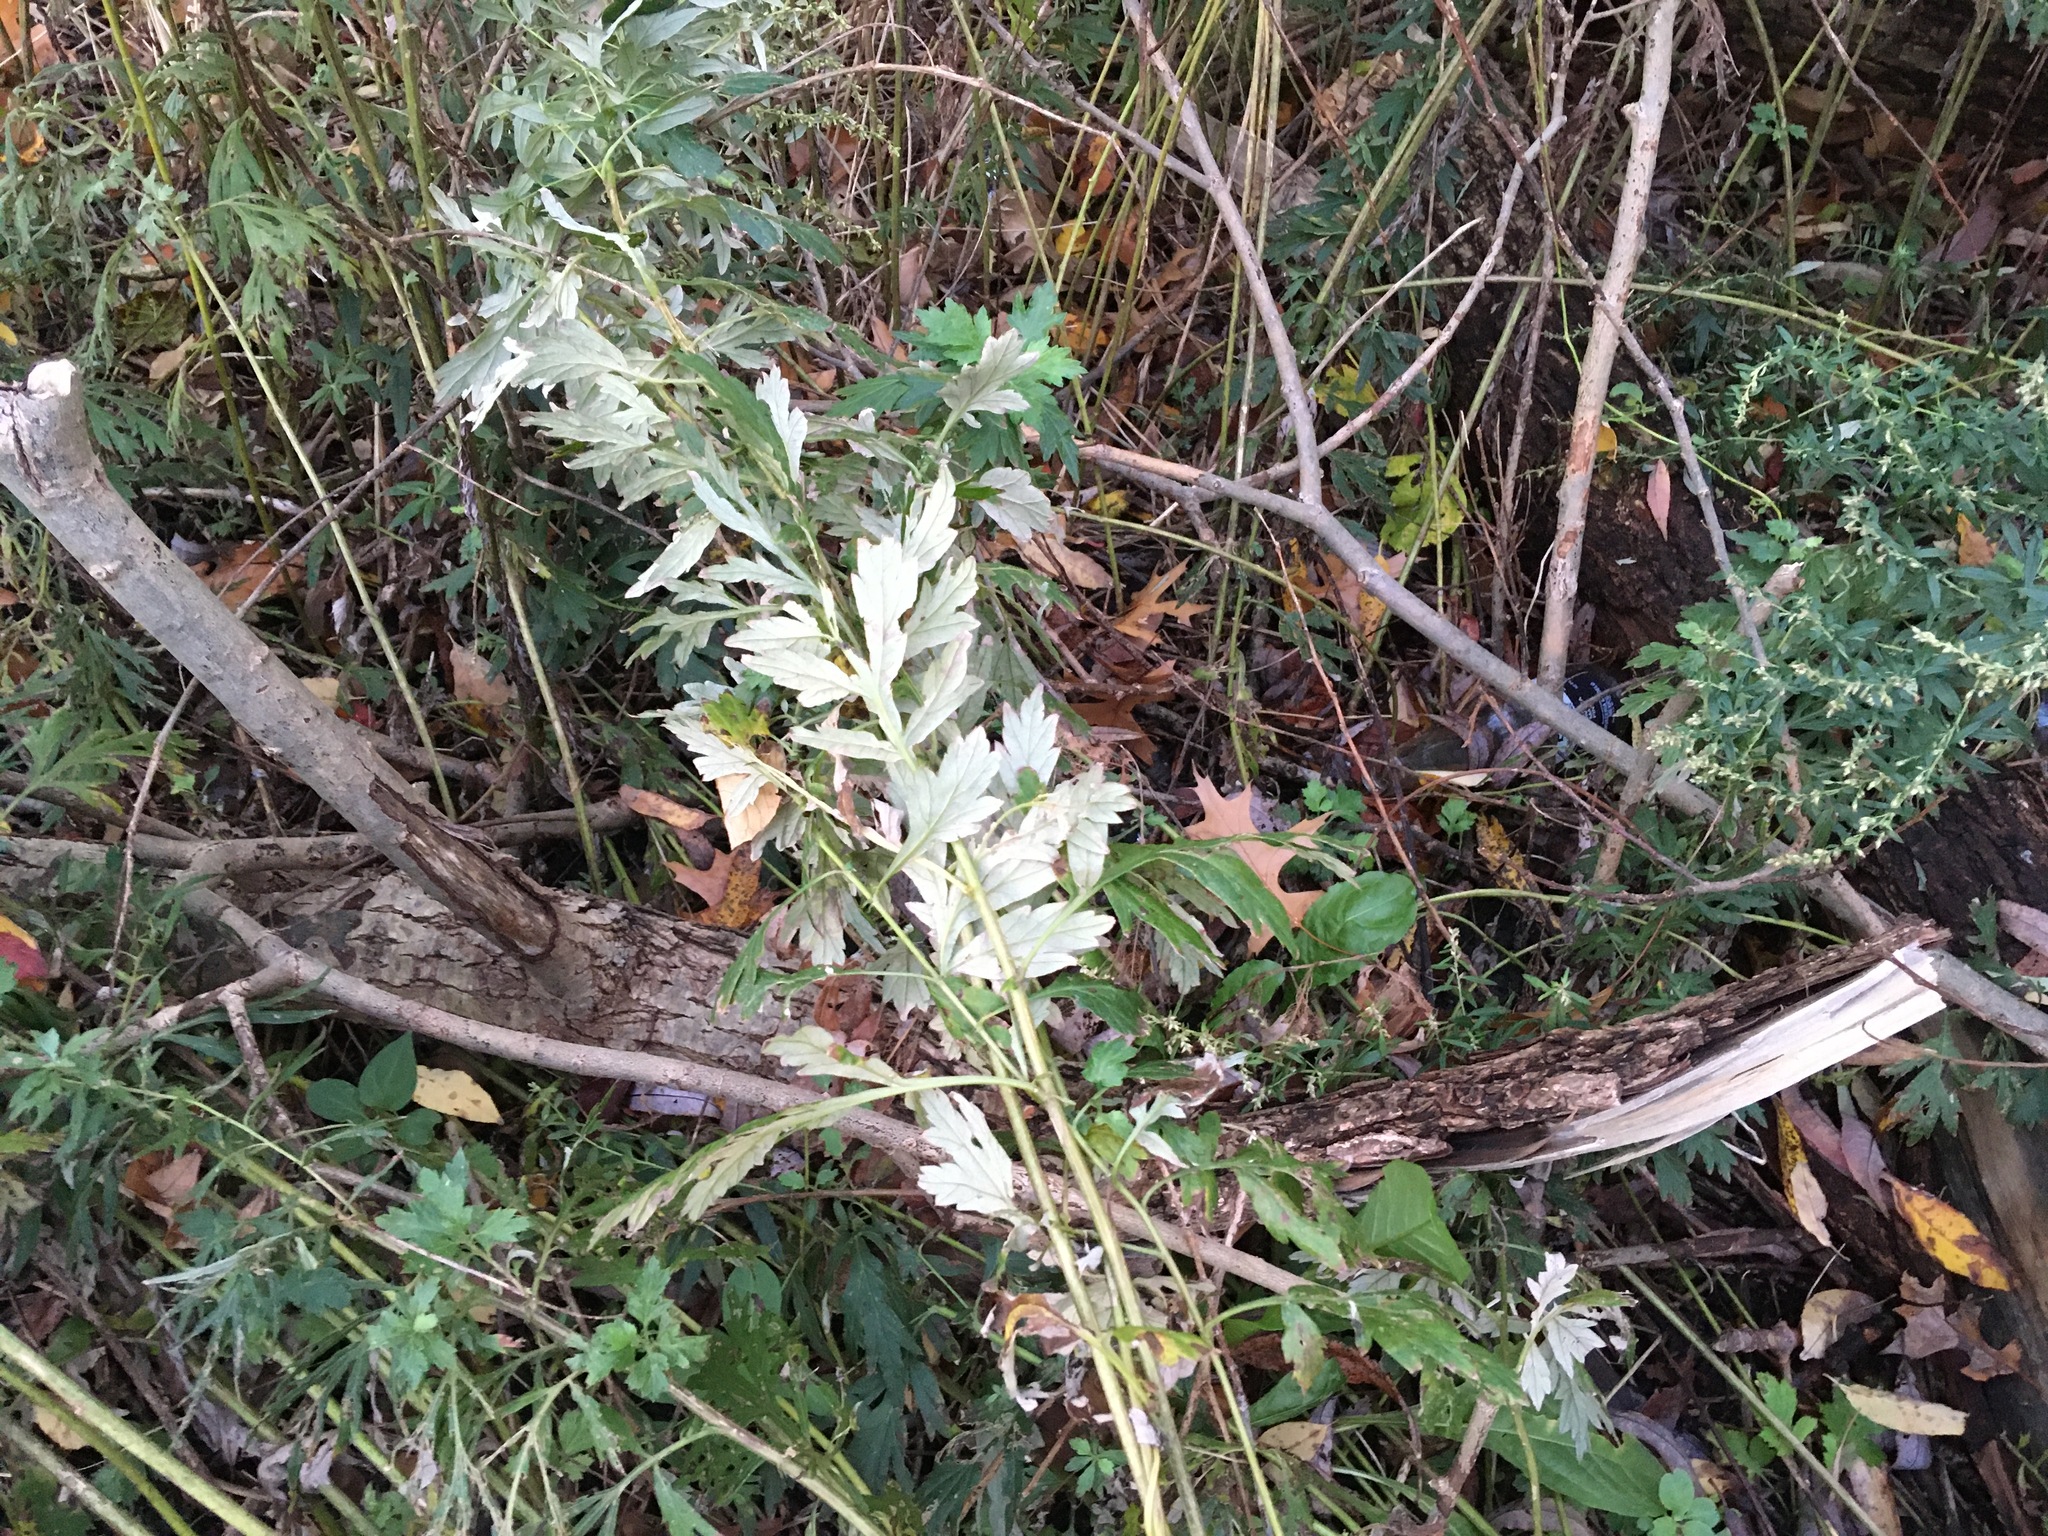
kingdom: Plantae
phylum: Tracheophyta
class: Magnoliopsida
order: Asterales
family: Asteraceae
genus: Artemisia
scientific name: Artemisia vulgaris
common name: Mugwort
